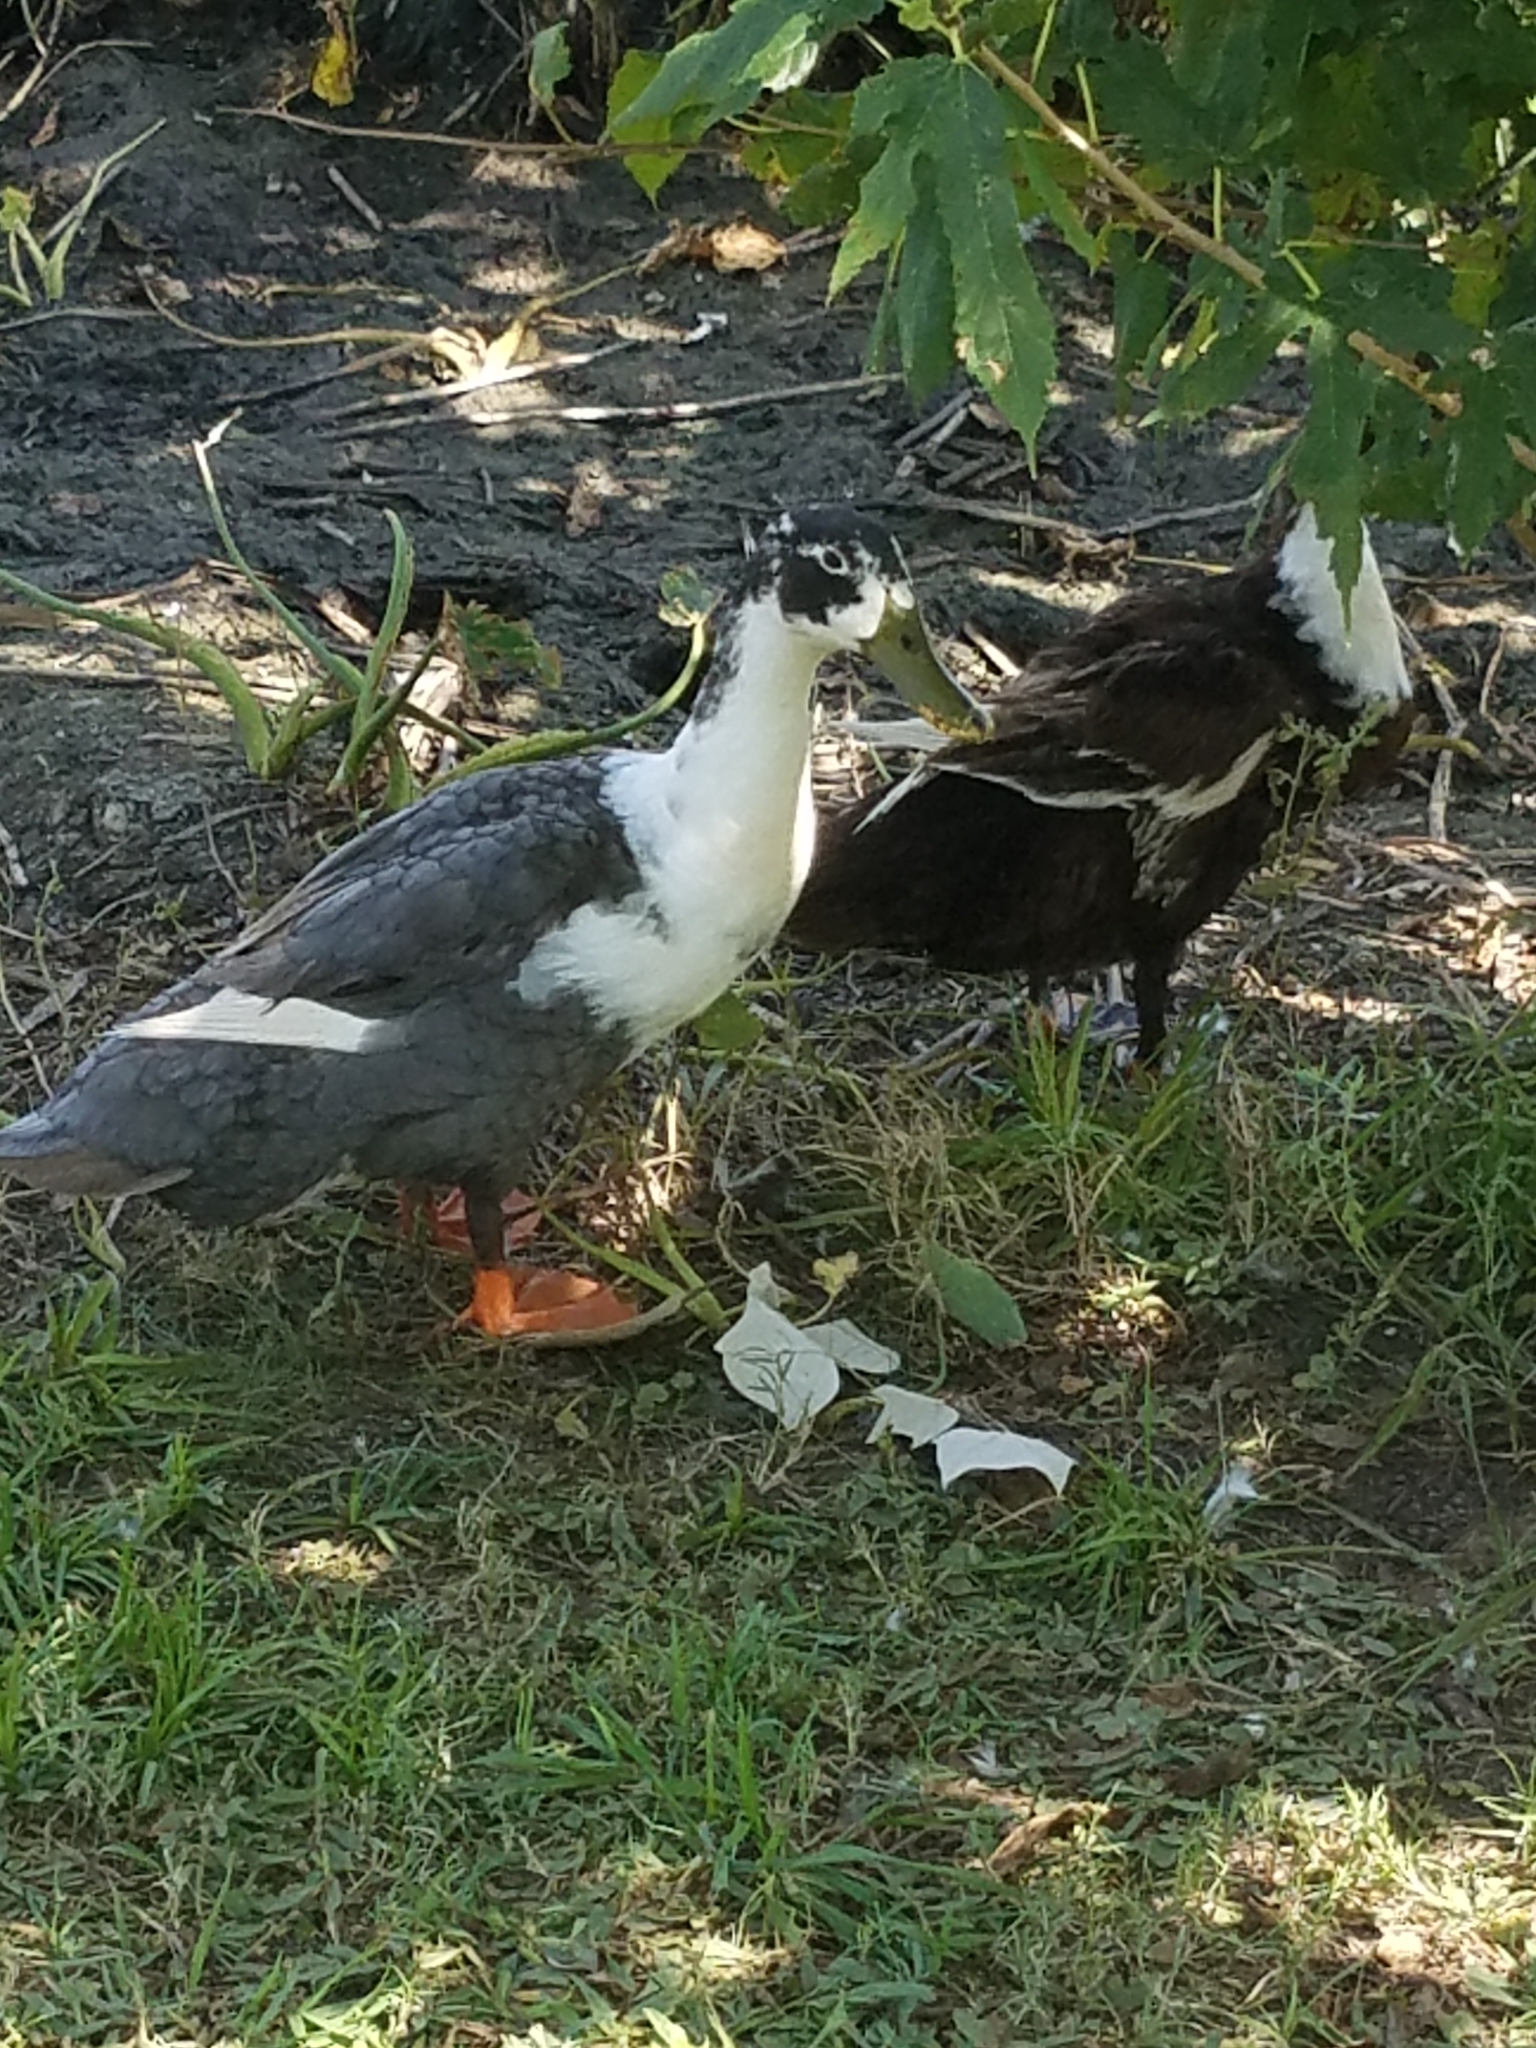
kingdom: Animalia
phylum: Chordata
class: Aves
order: Anseriformes
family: Anatidae
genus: Anas
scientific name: Anas platyrhynchos
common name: Mallard
